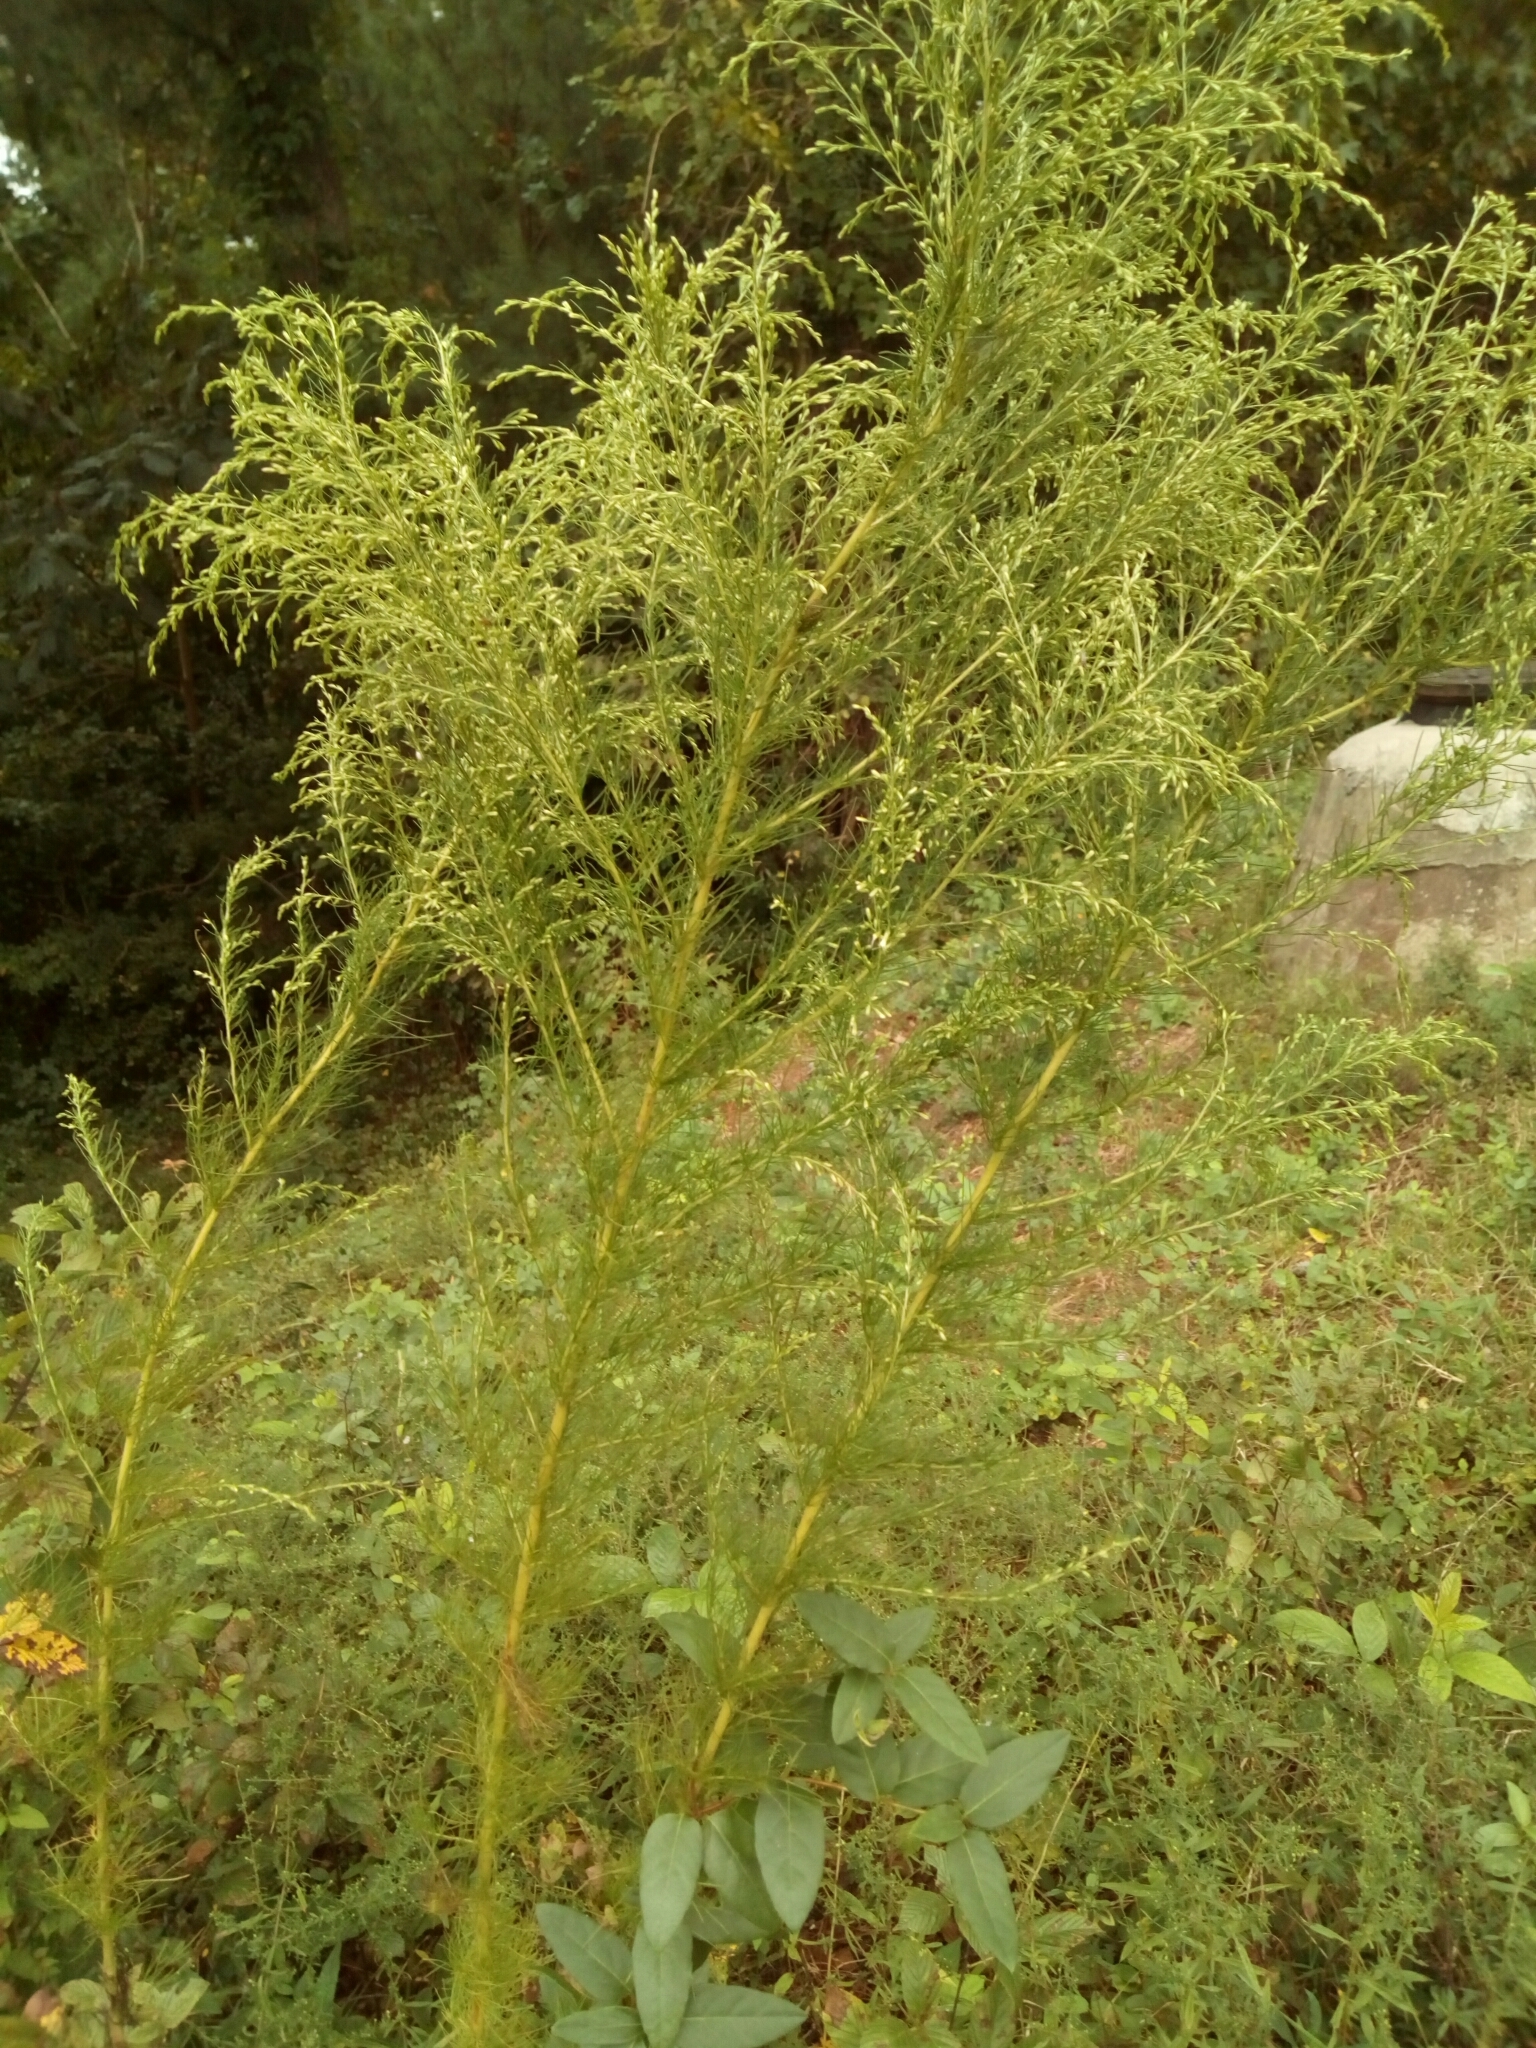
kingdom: Plantae
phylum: Tracheophyta
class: Magnoliopsida
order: Asterales
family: Asteraceae
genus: Eupatorium
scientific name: Eupatorium capillifolium
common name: Dog-fennel
